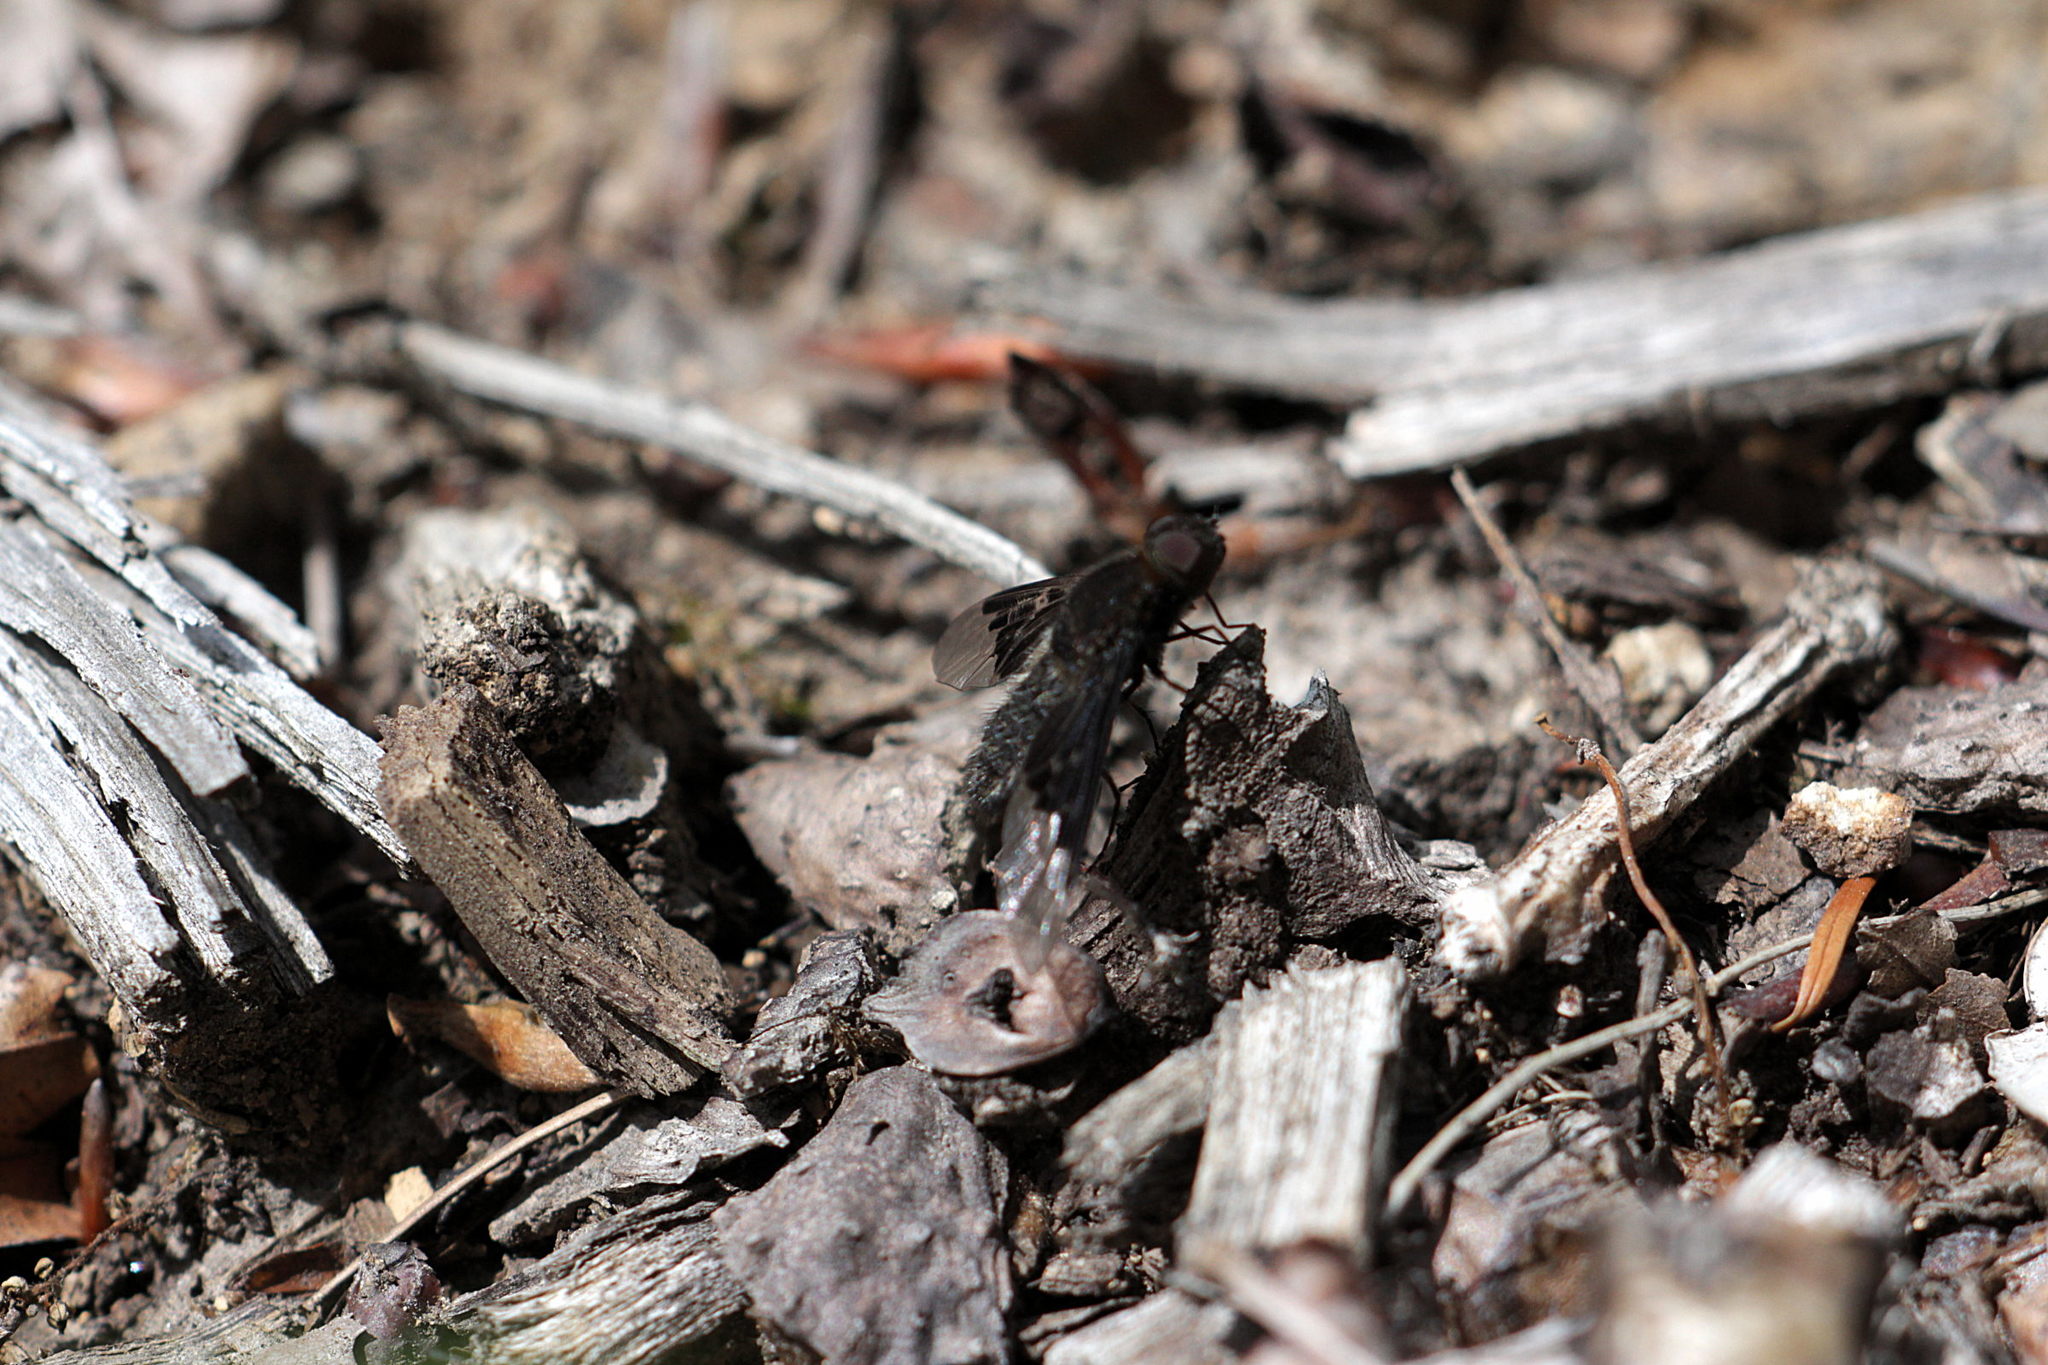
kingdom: Animalia
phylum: Arthropoda
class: Insecta
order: Diptera
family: Bombyliidae
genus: Hemipenthes
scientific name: Hemipenthes morio
